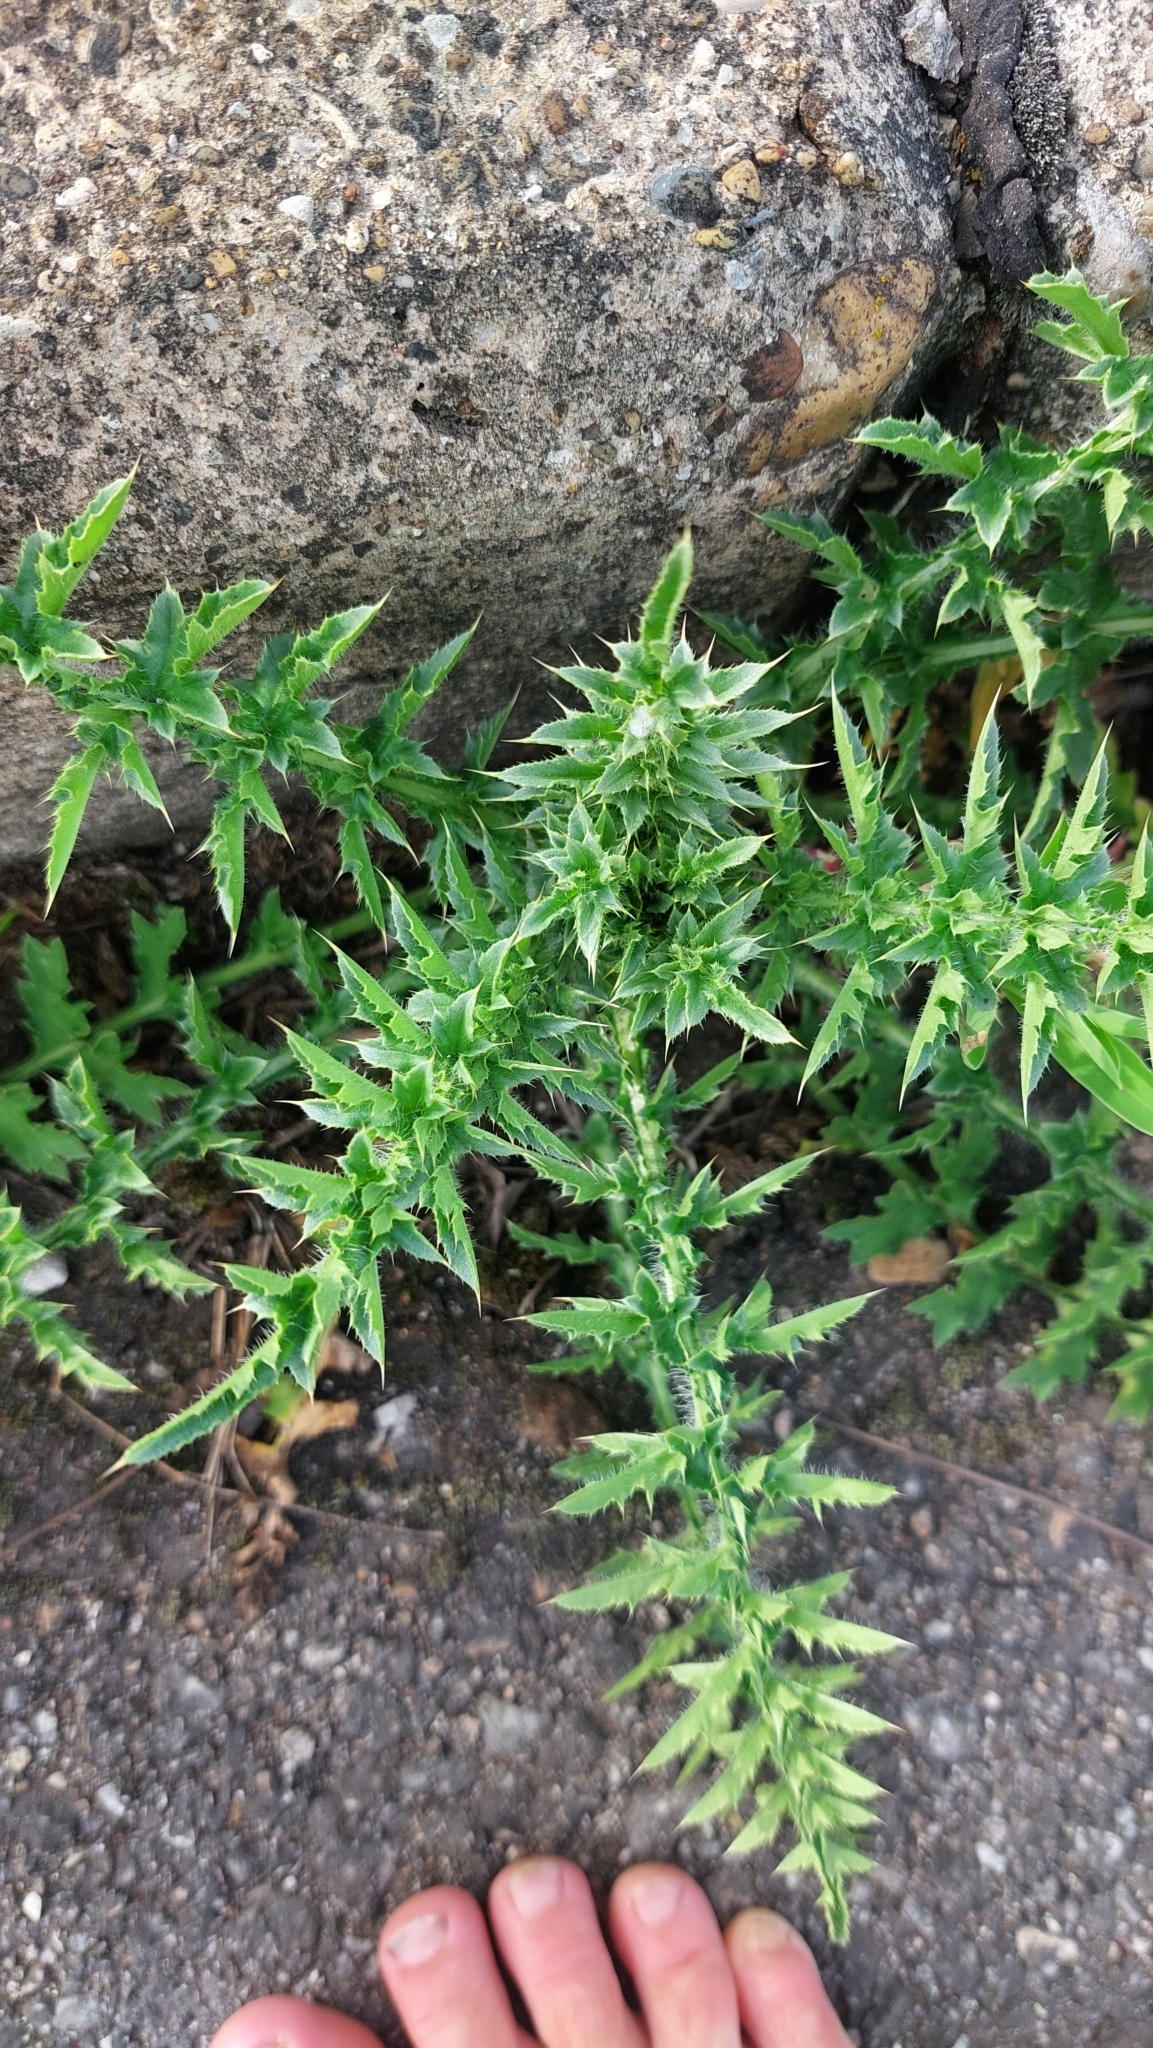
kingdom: Plantae
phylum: Tracheophyta
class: Magnoliopsida
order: Asterales
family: Asteraceae
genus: Carduus
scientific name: Carduus acanthoides
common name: Plumeless thistle
